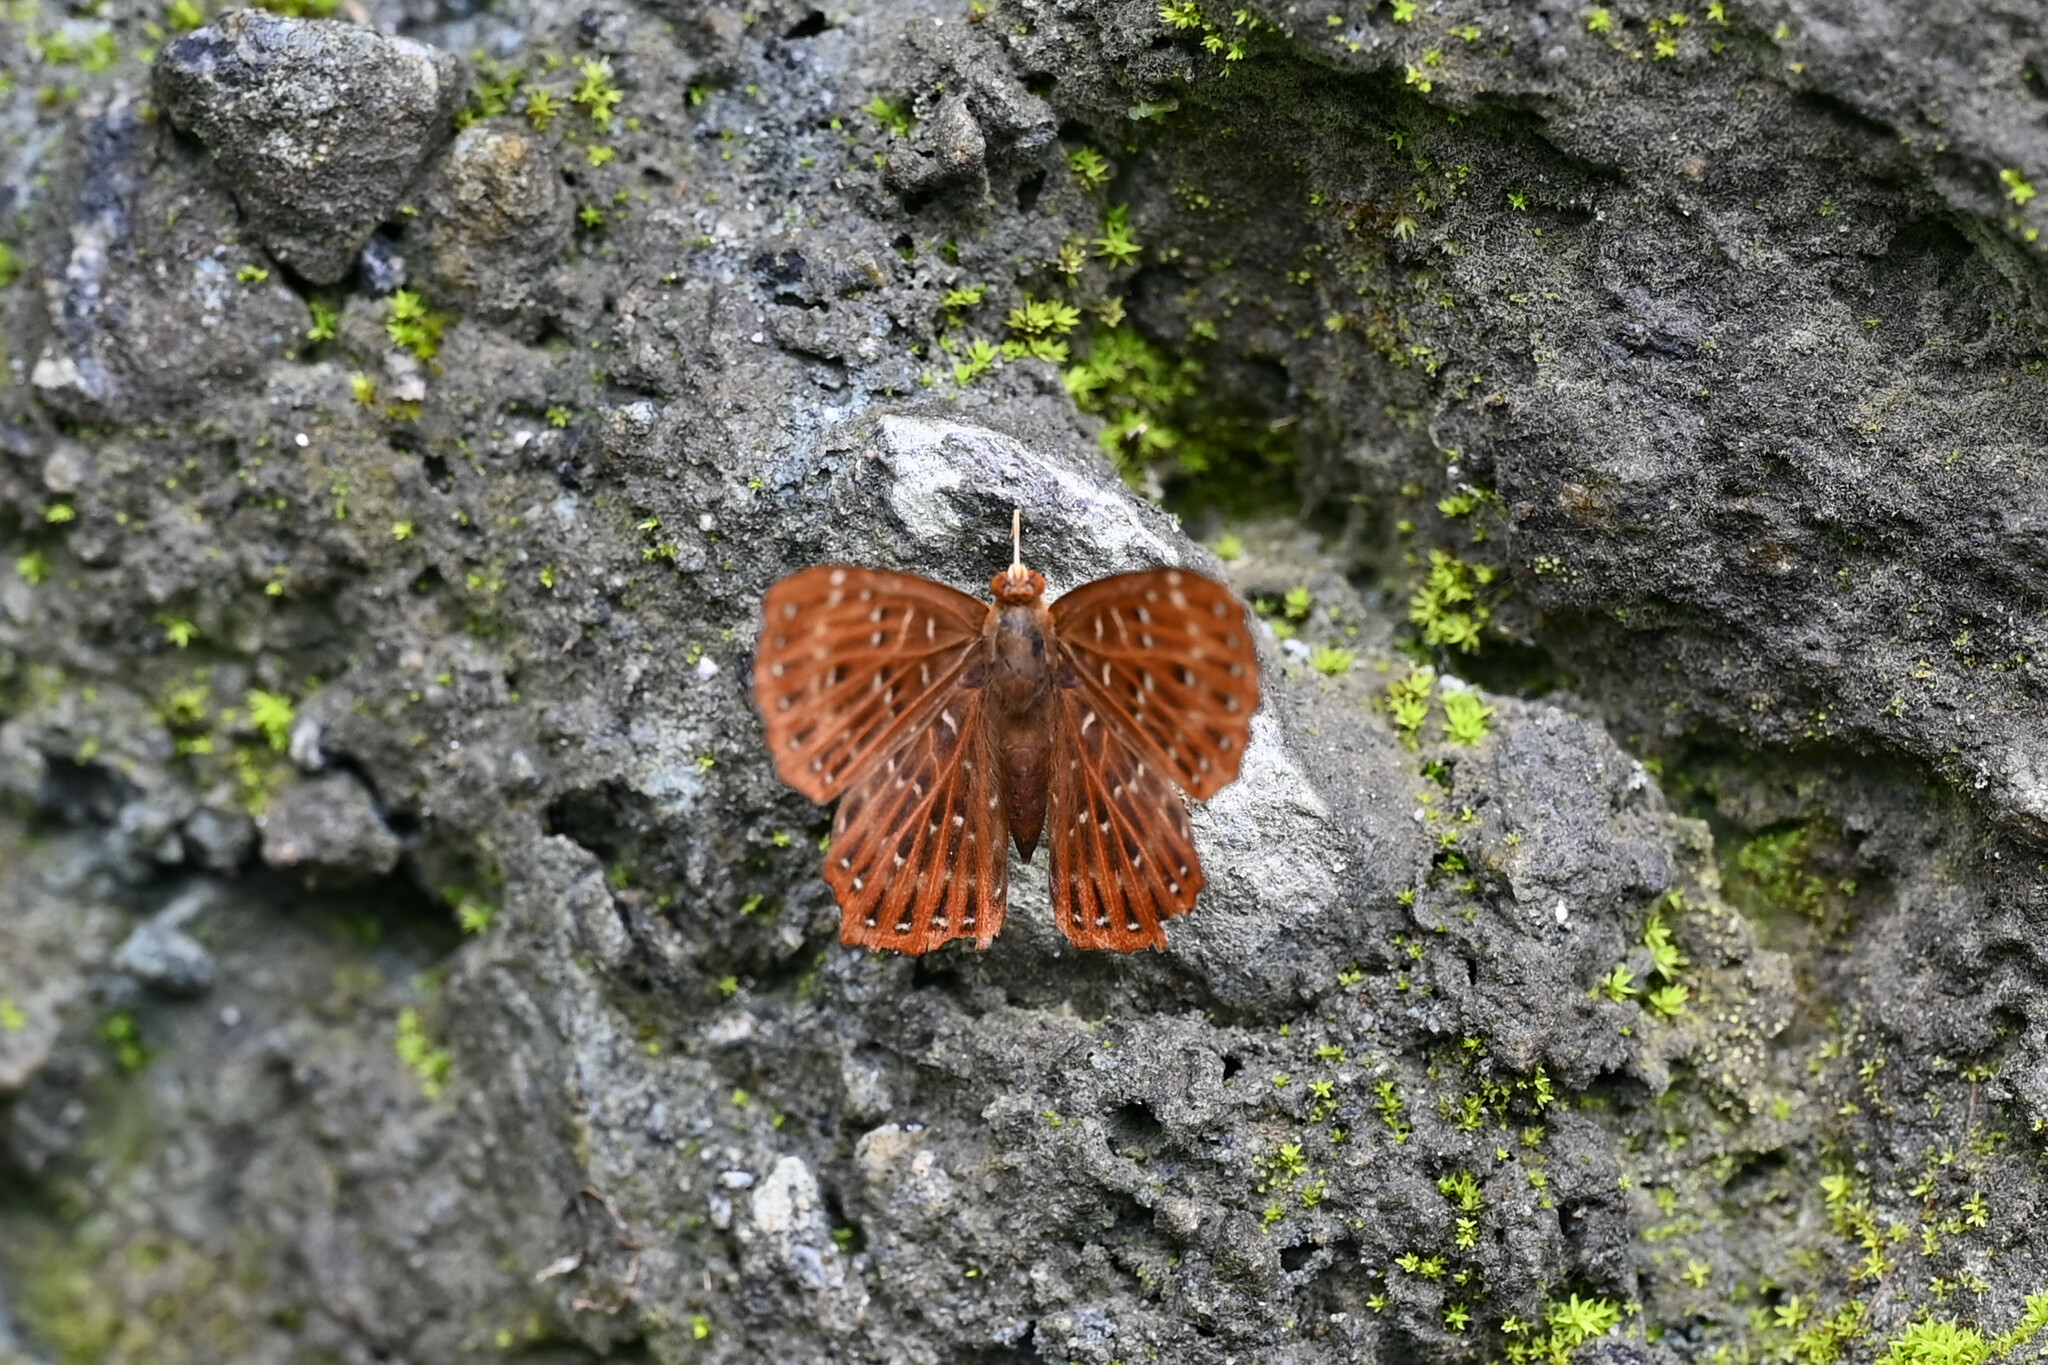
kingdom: Animalia
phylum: Arthropoda
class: Insecta
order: Lepidoptera
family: Riodinidae
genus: Zemeros
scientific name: Zemeros flegyas
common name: Punchinello
